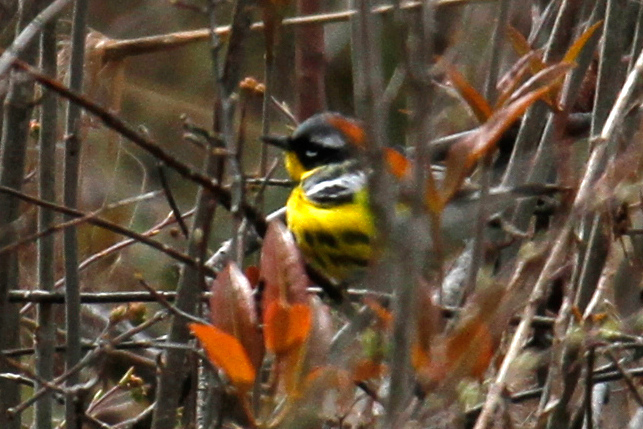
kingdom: Animalia
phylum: Chordata
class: Aves
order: Passeriformes
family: Parulidae
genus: Setophaga
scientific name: Setophaga magnolia
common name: Magnolia warbler
